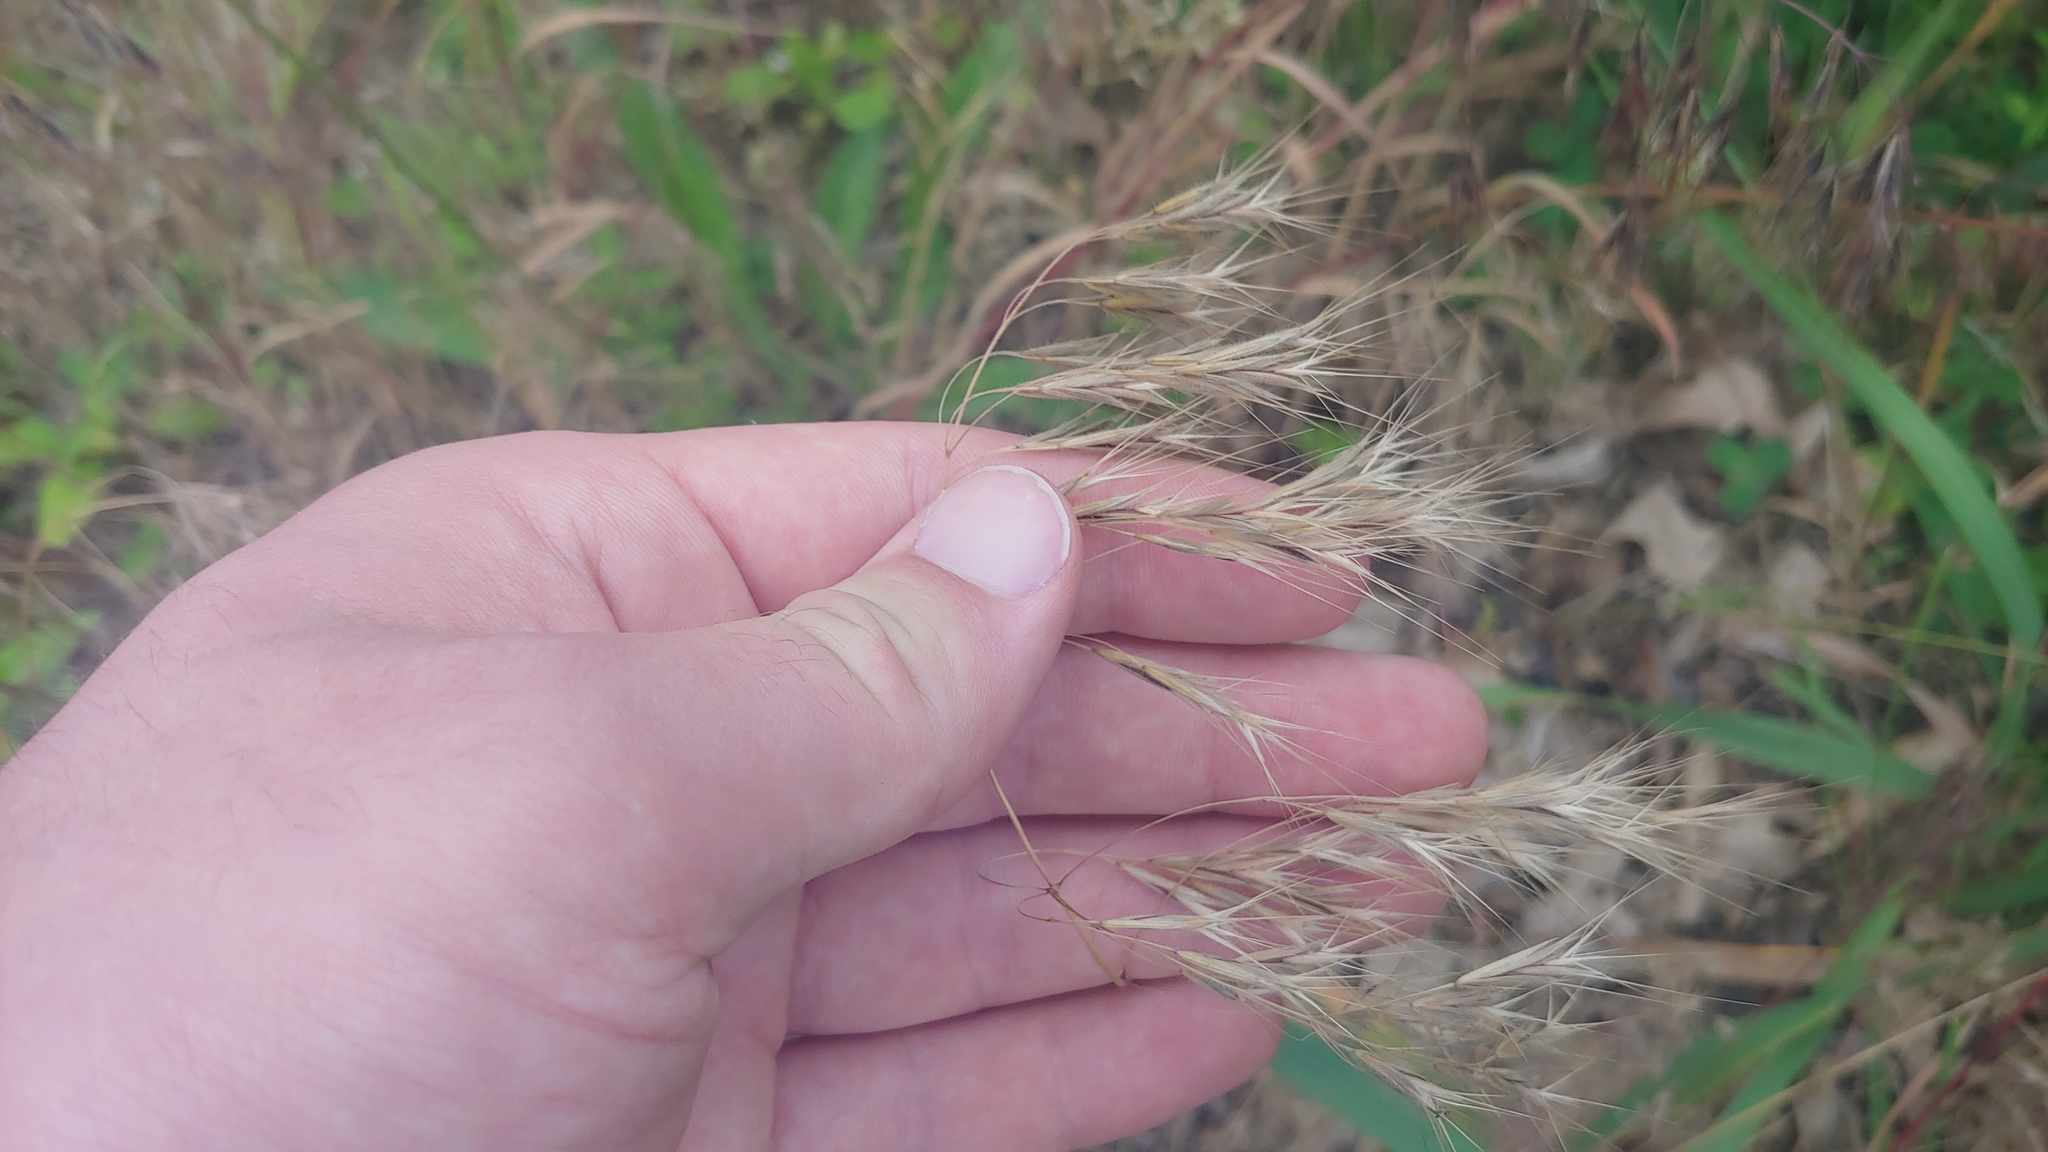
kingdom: Plantae
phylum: Tracheophyta
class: Liliopsida
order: Poales
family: Poaceae
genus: Bromus
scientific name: Bromus tectorum
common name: Cheatgrass
